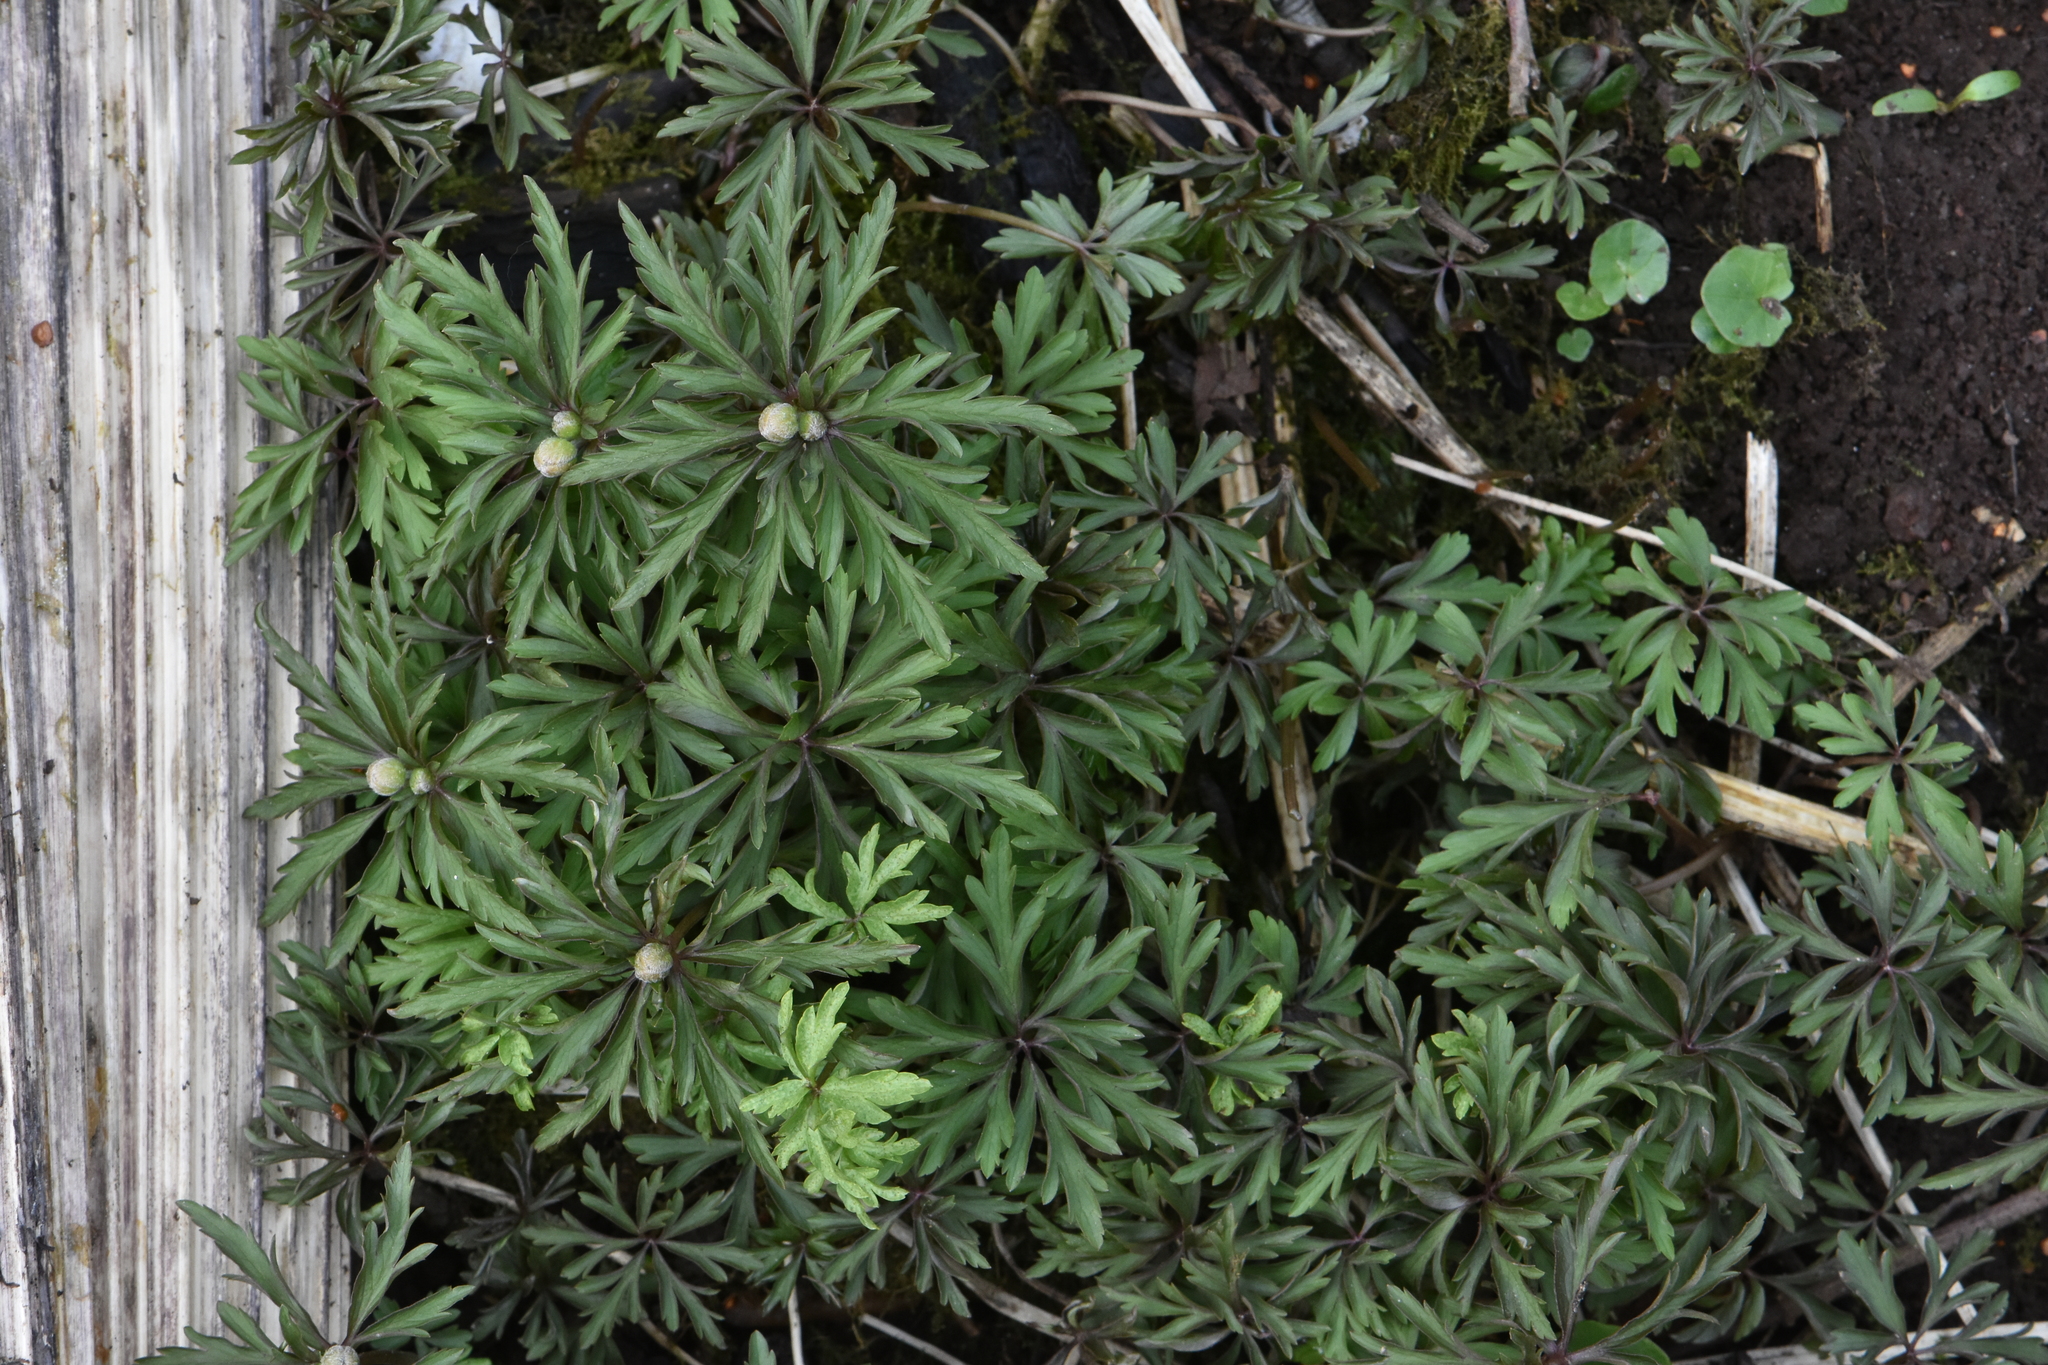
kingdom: Plantae
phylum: Tracheophyta
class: Magnoliopsida
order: Ranunculales
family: Ranunculaceae
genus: Anemone
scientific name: Anemone ranunculoides
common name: Yellow anemone
